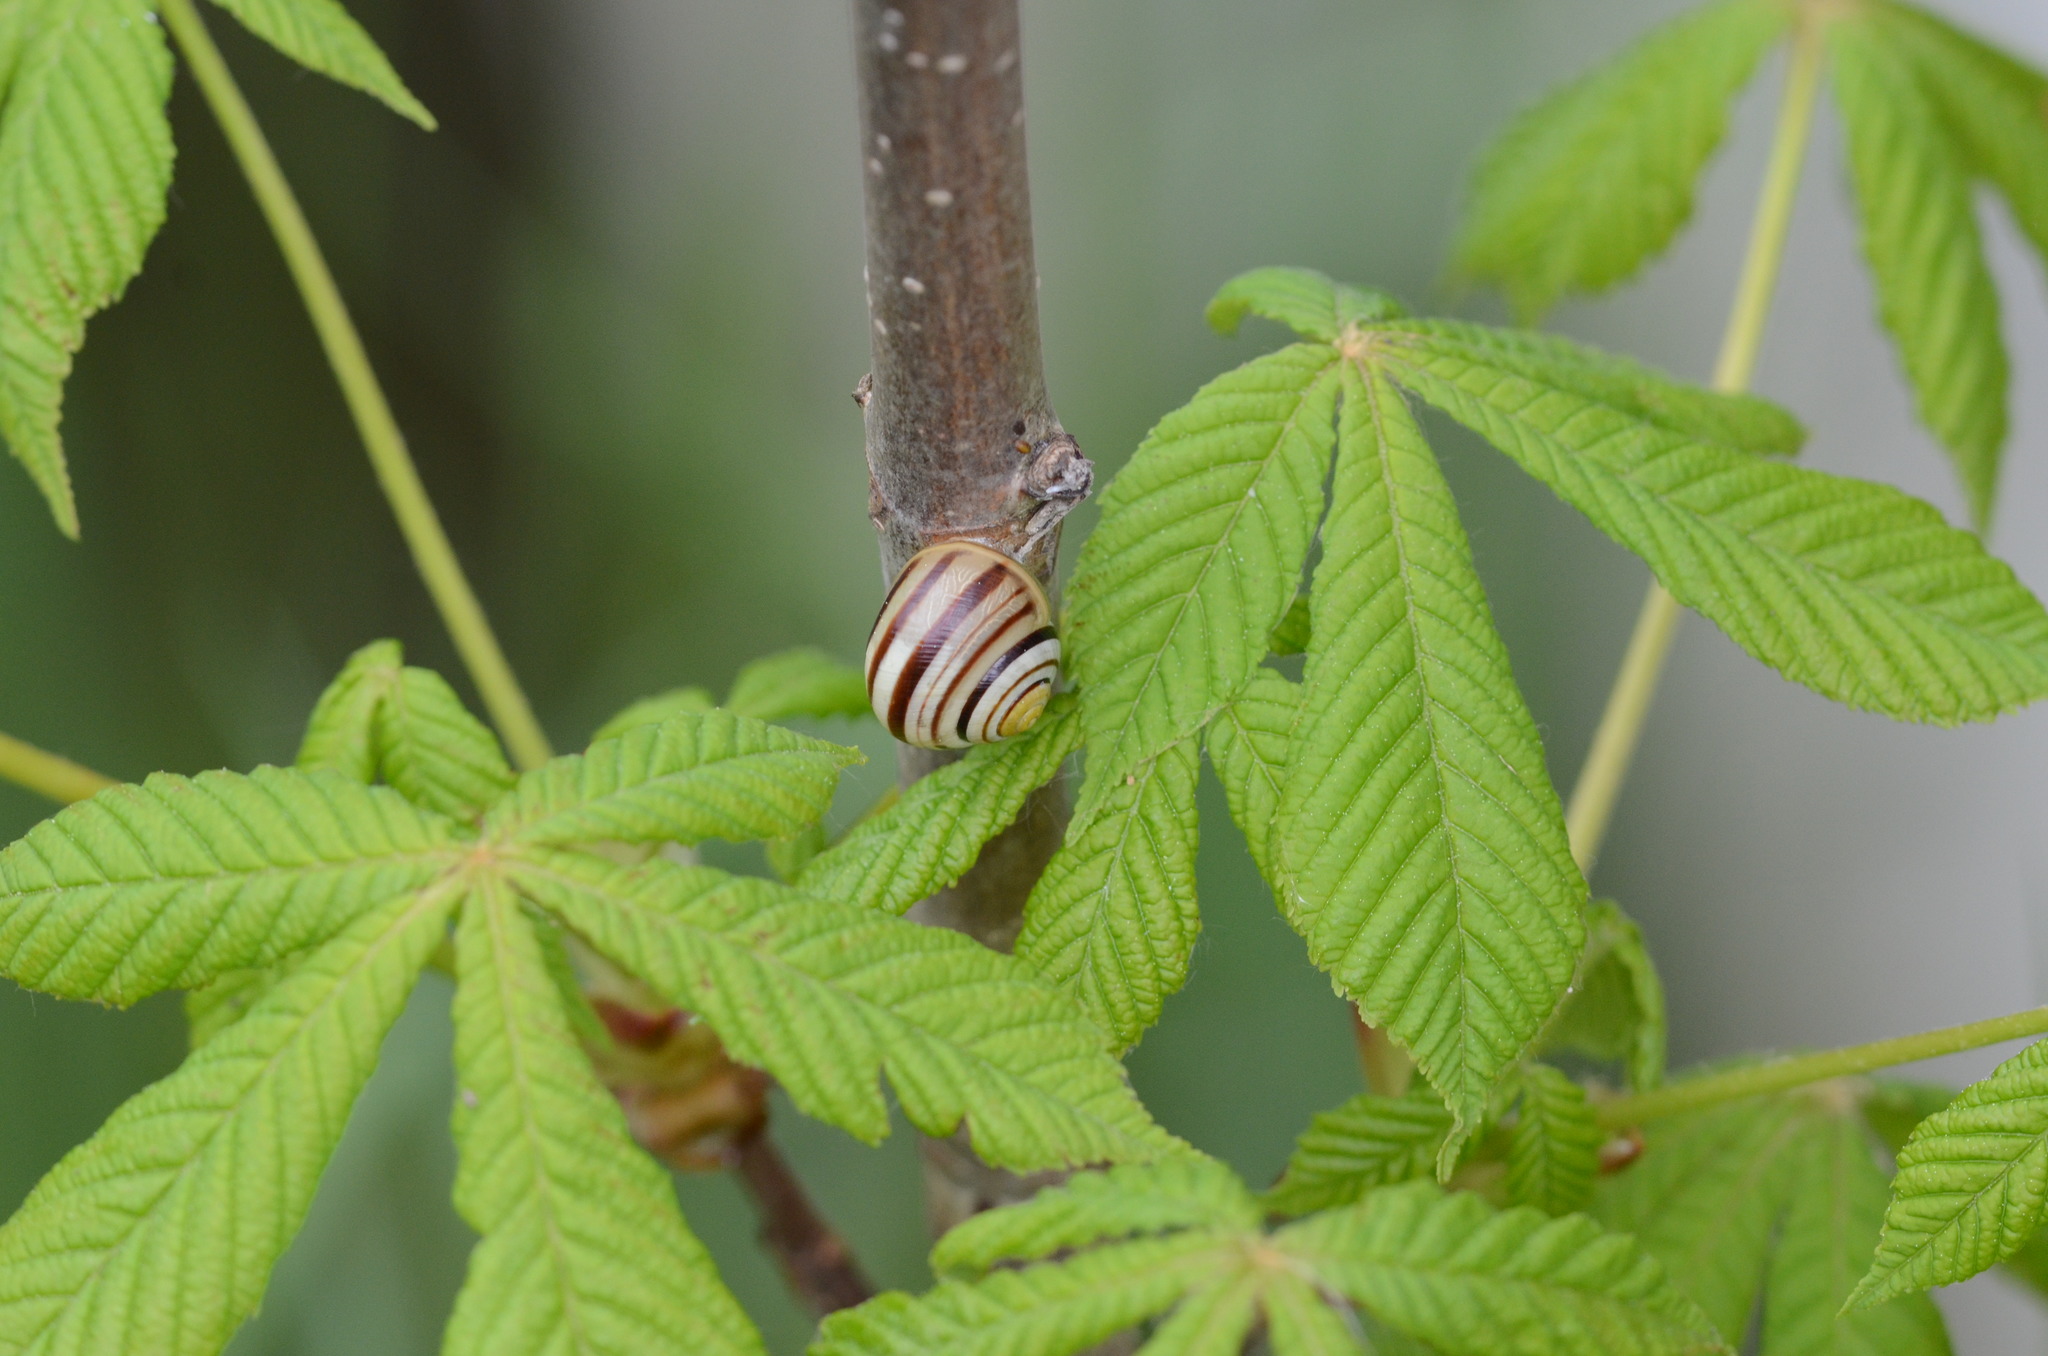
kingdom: Animalia
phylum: Mollusca
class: Gastropoda
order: Stylommatophora
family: Helicidae
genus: Cepaea
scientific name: Cepaea
